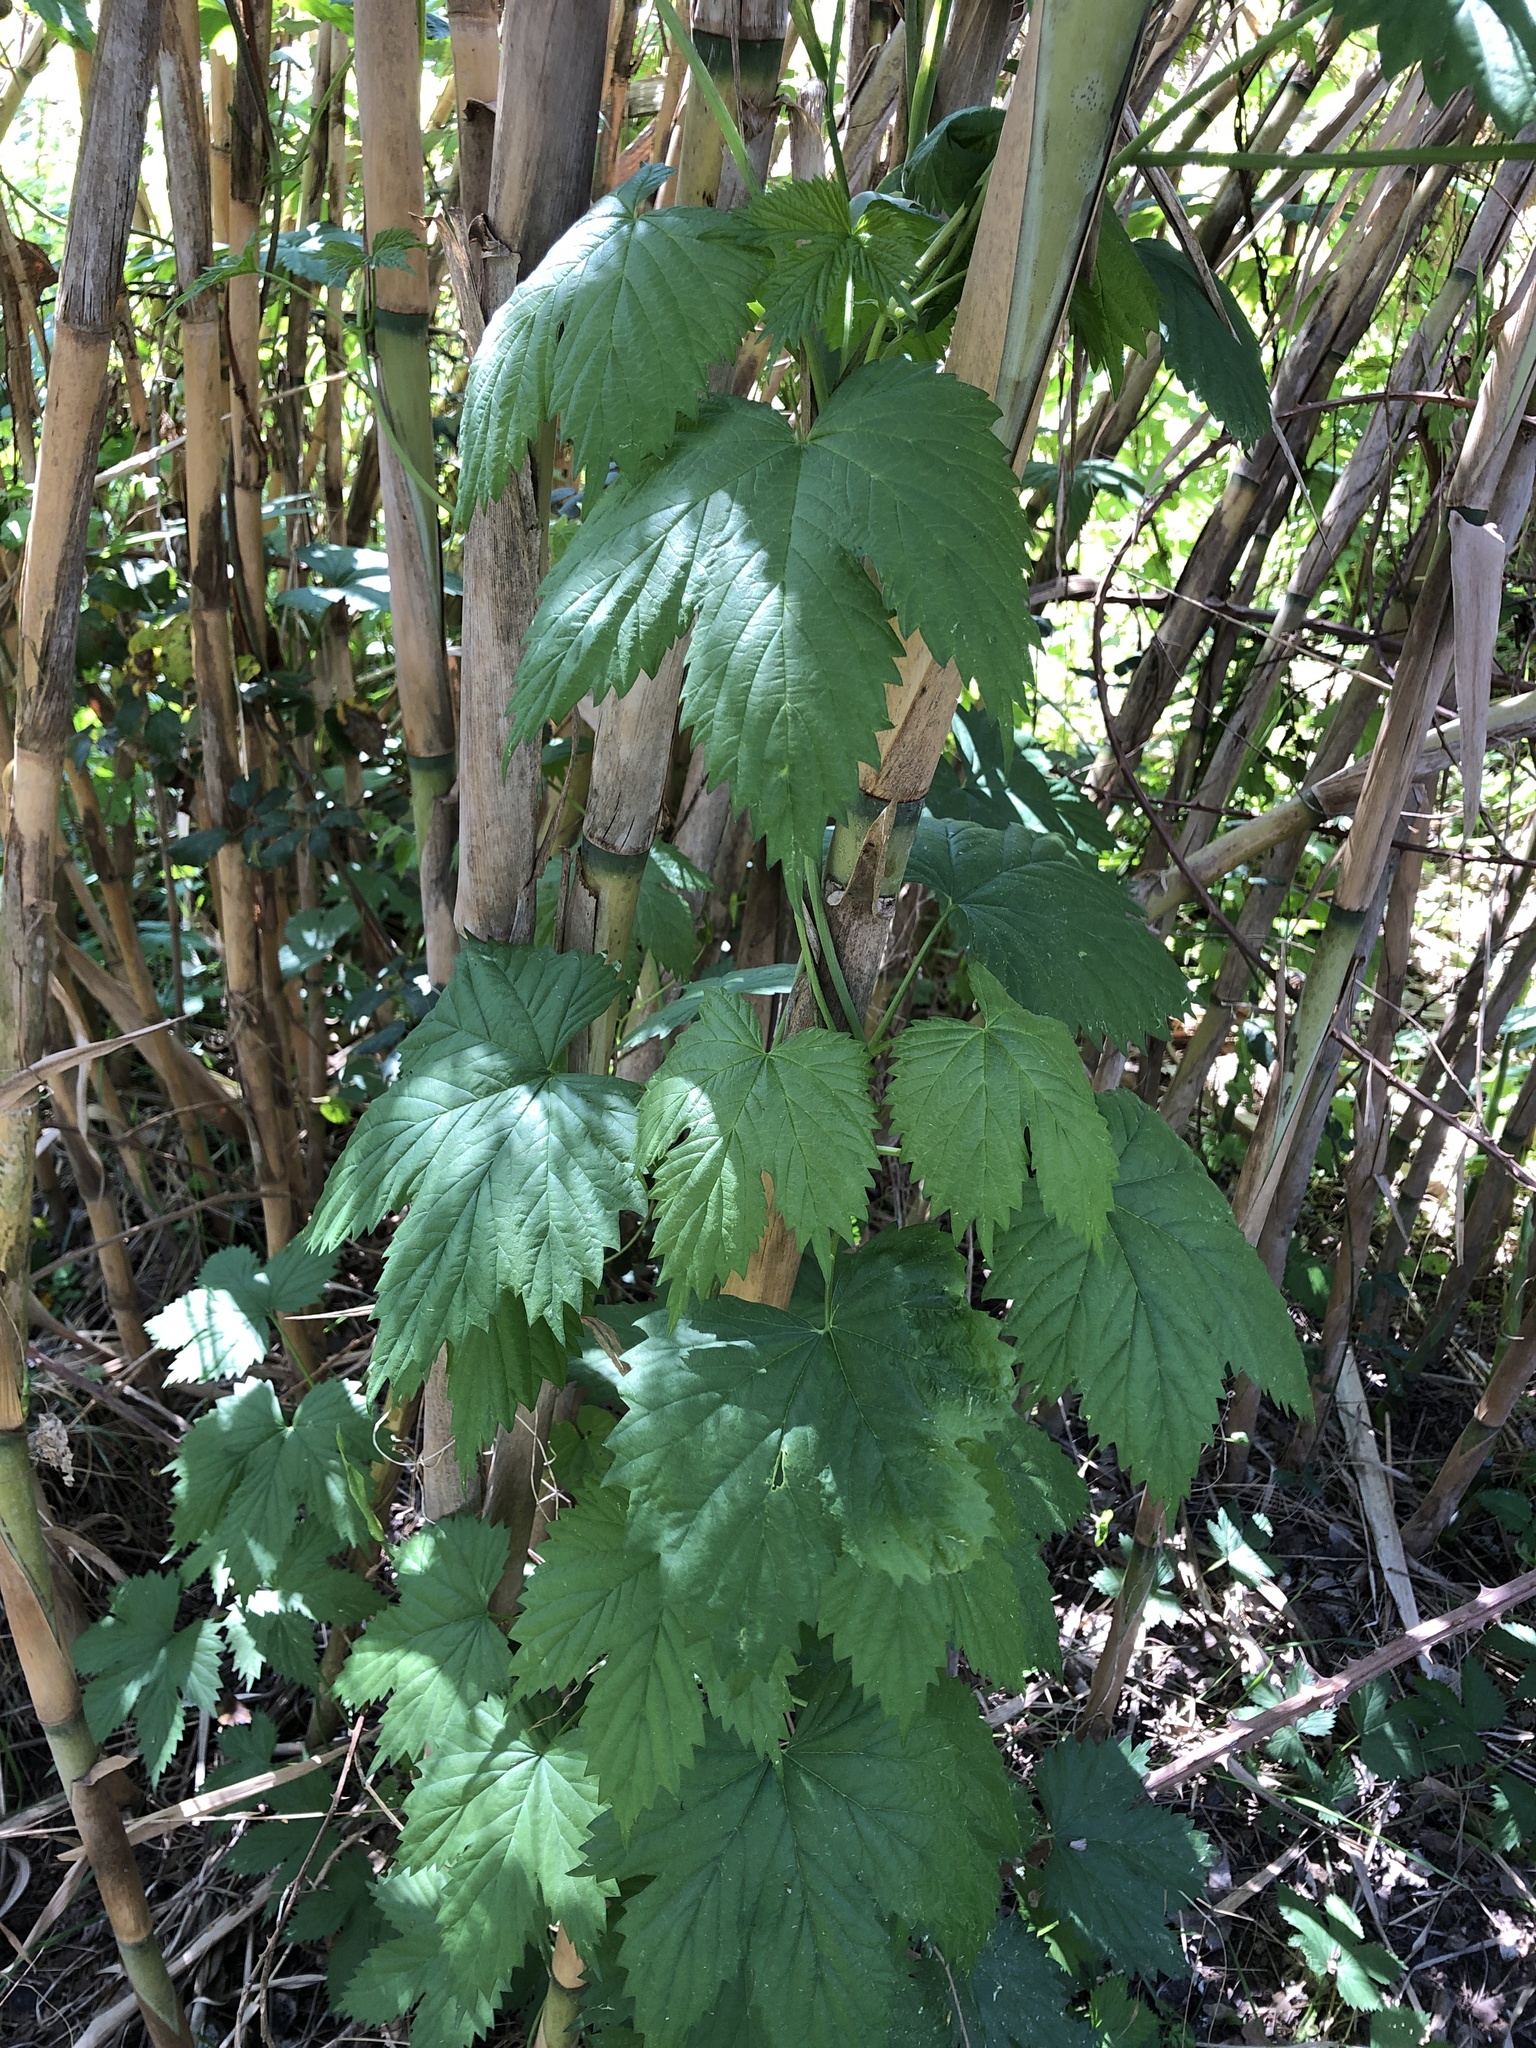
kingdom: Plantae
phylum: Tracheophyta
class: Magnoliopsida
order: Rosales
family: Cannabaceae
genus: Humulus
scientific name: Humulus lupulus
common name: Hop
